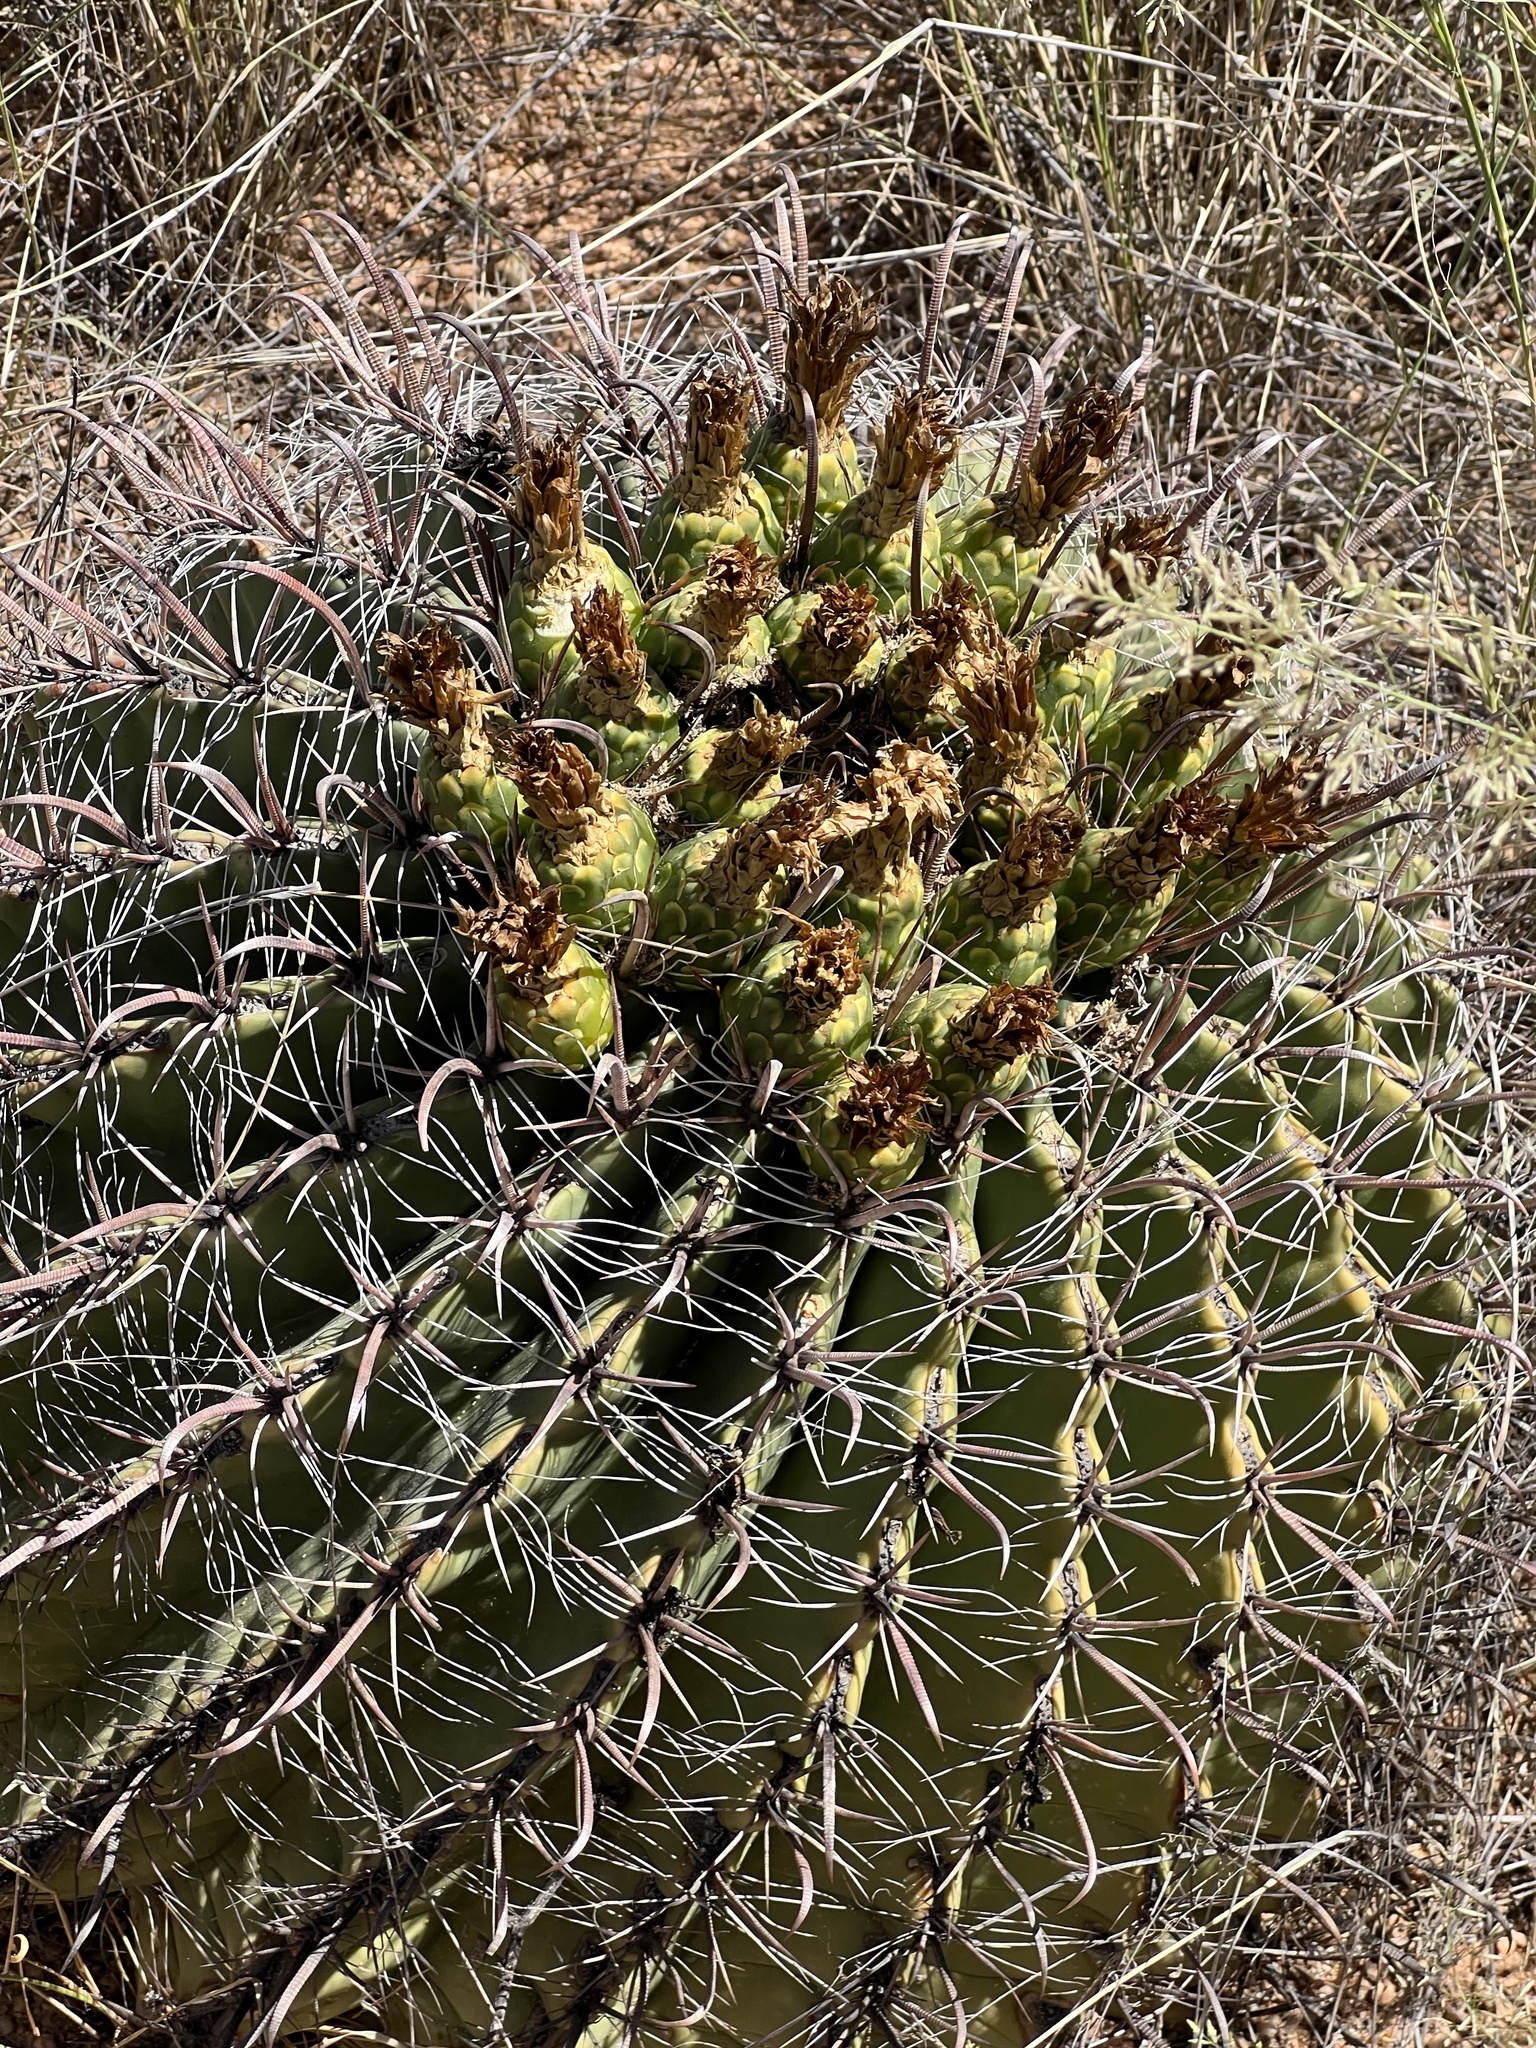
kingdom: Plantae
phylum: Tracheophyta
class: Magnoliopsida
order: Caryophyllales
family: Cactaceae
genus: Ferocactus
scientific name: Ferocactus wislizeni
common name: Candy barrel cactus
